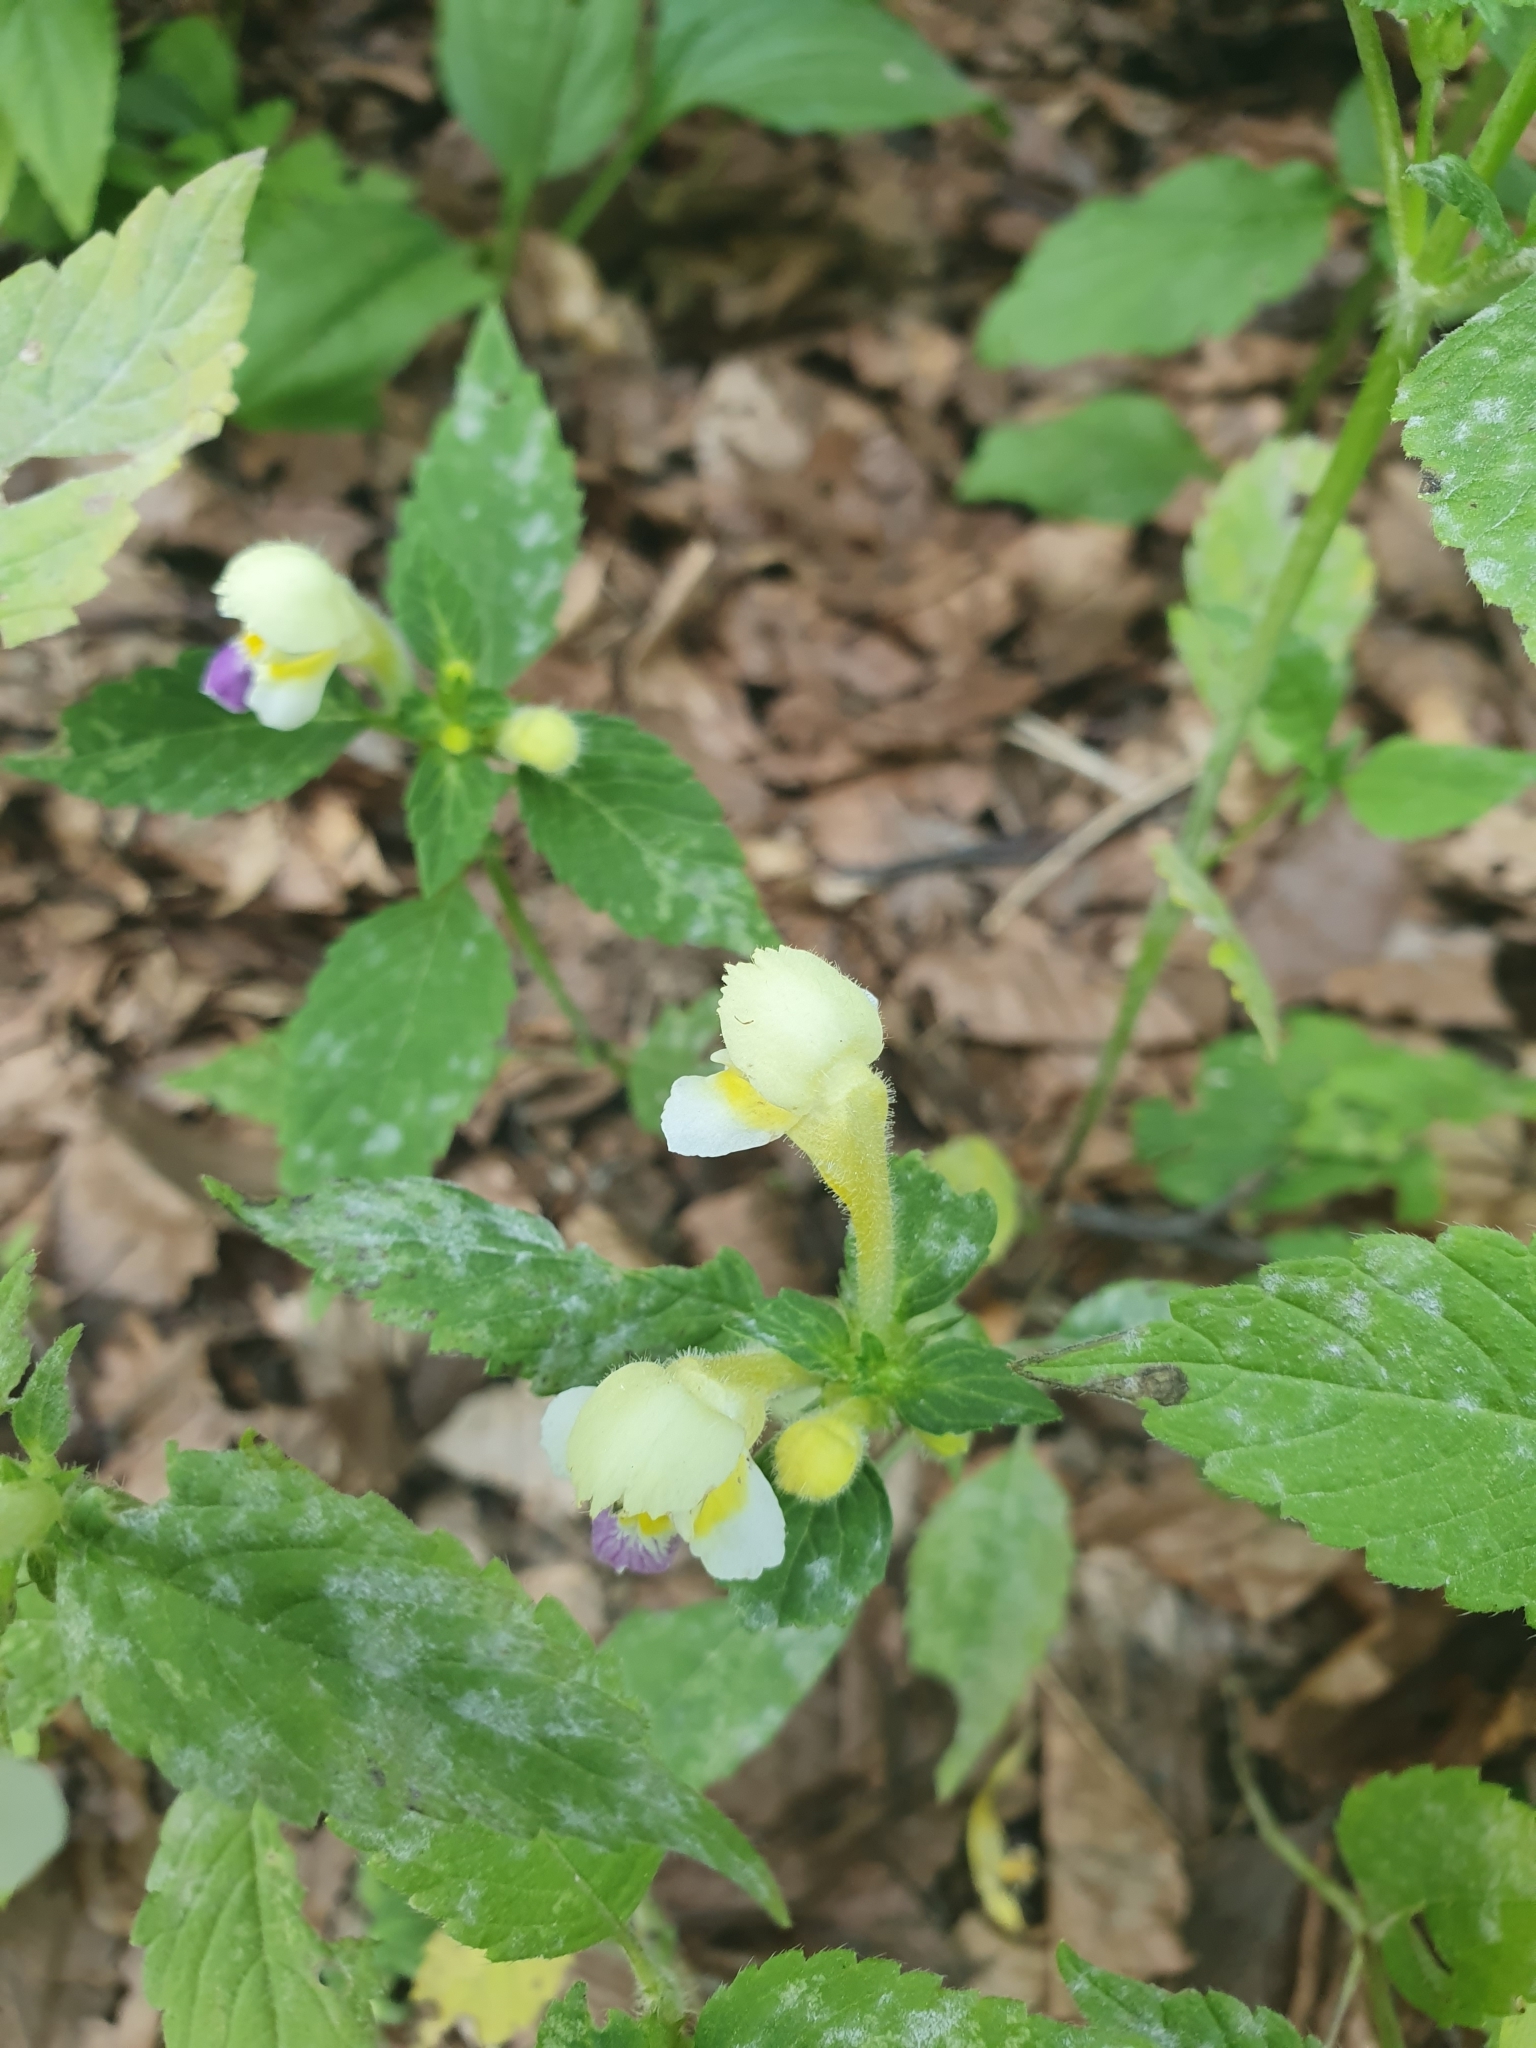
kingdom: Plantae
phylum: Tracheophyta
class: Magnoliopsida
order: Lamiales
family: Lamiaceae
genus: Galeopsis
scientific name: Galeopsis speciosa
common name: Large-flowered hemp-nettle
